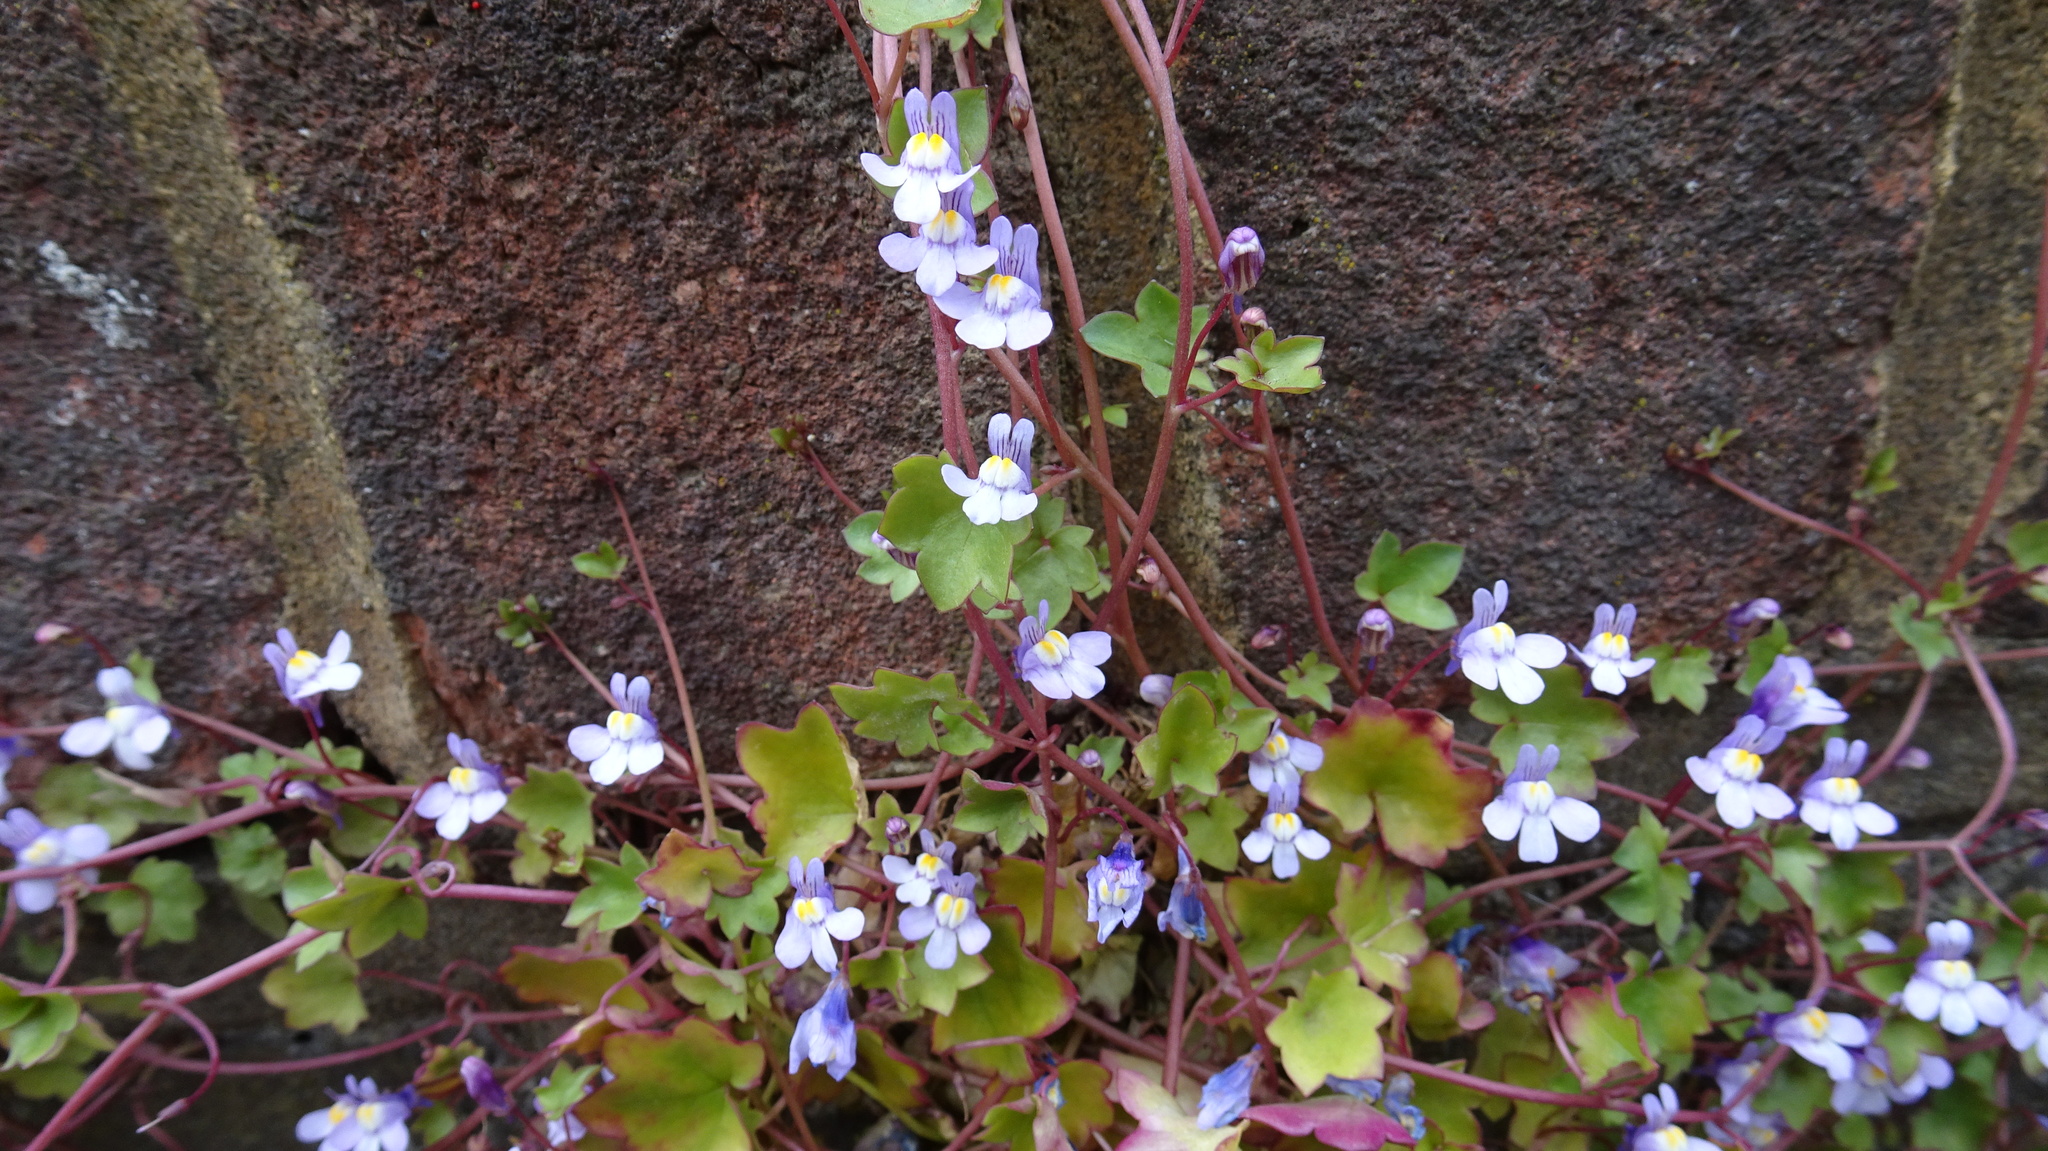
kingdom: Plantae
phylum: Tracheophyta
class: Magnoliopsida
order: Lamiales
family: Plantaginaceae
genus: Cymbalaria
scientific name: Cymbalaria muralis
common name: Ivy-leaved toadflax
